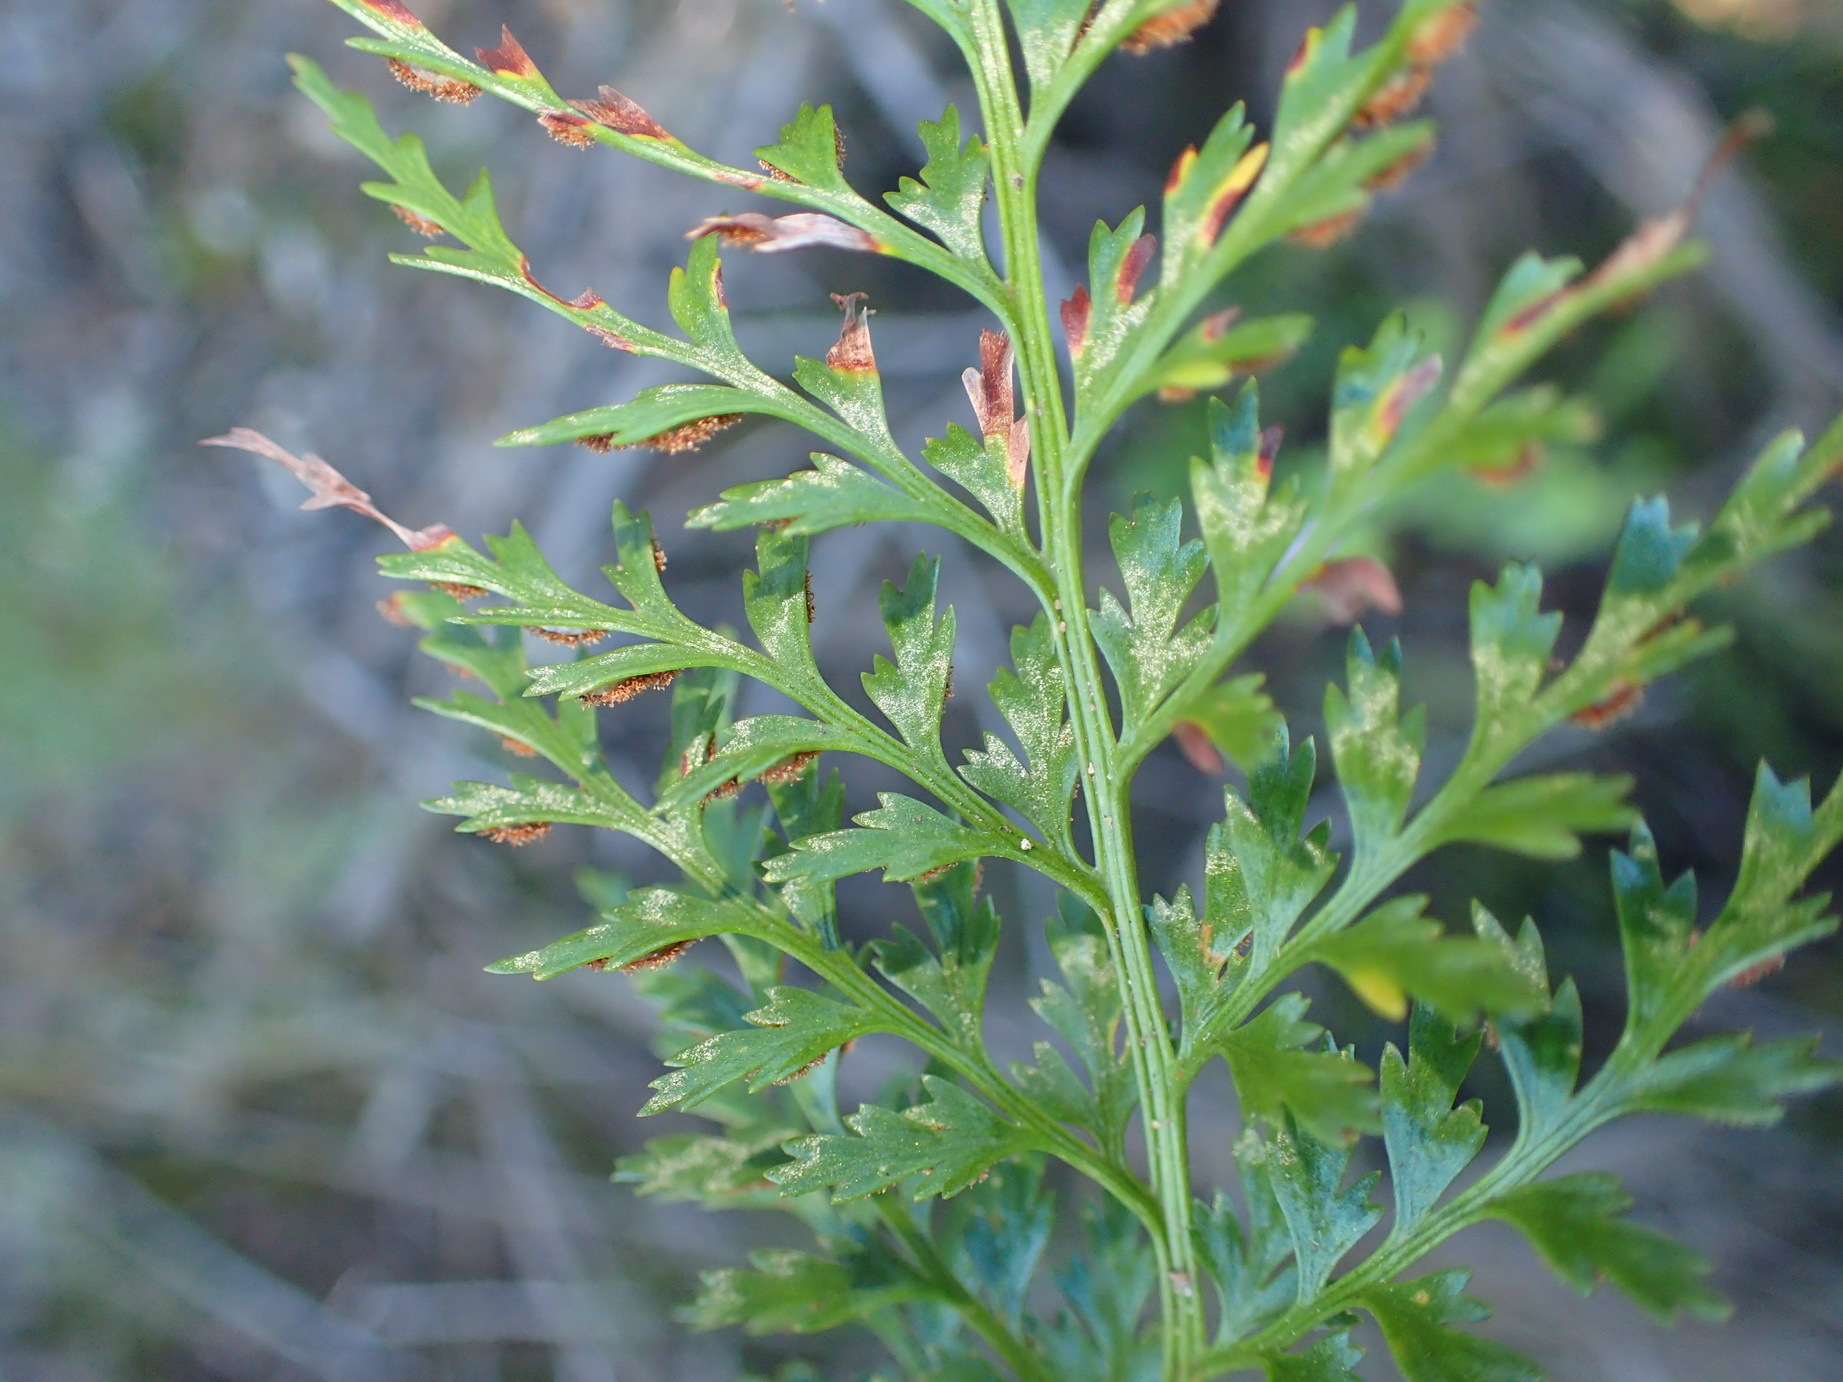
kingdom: Plantae
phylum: Tracheophyta
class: Polypodiopsida
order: Polypodiales
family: Aspleniaceae
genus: Asplenium
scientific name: Asplenium adiantum-nigrum
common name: Black spleenwort
